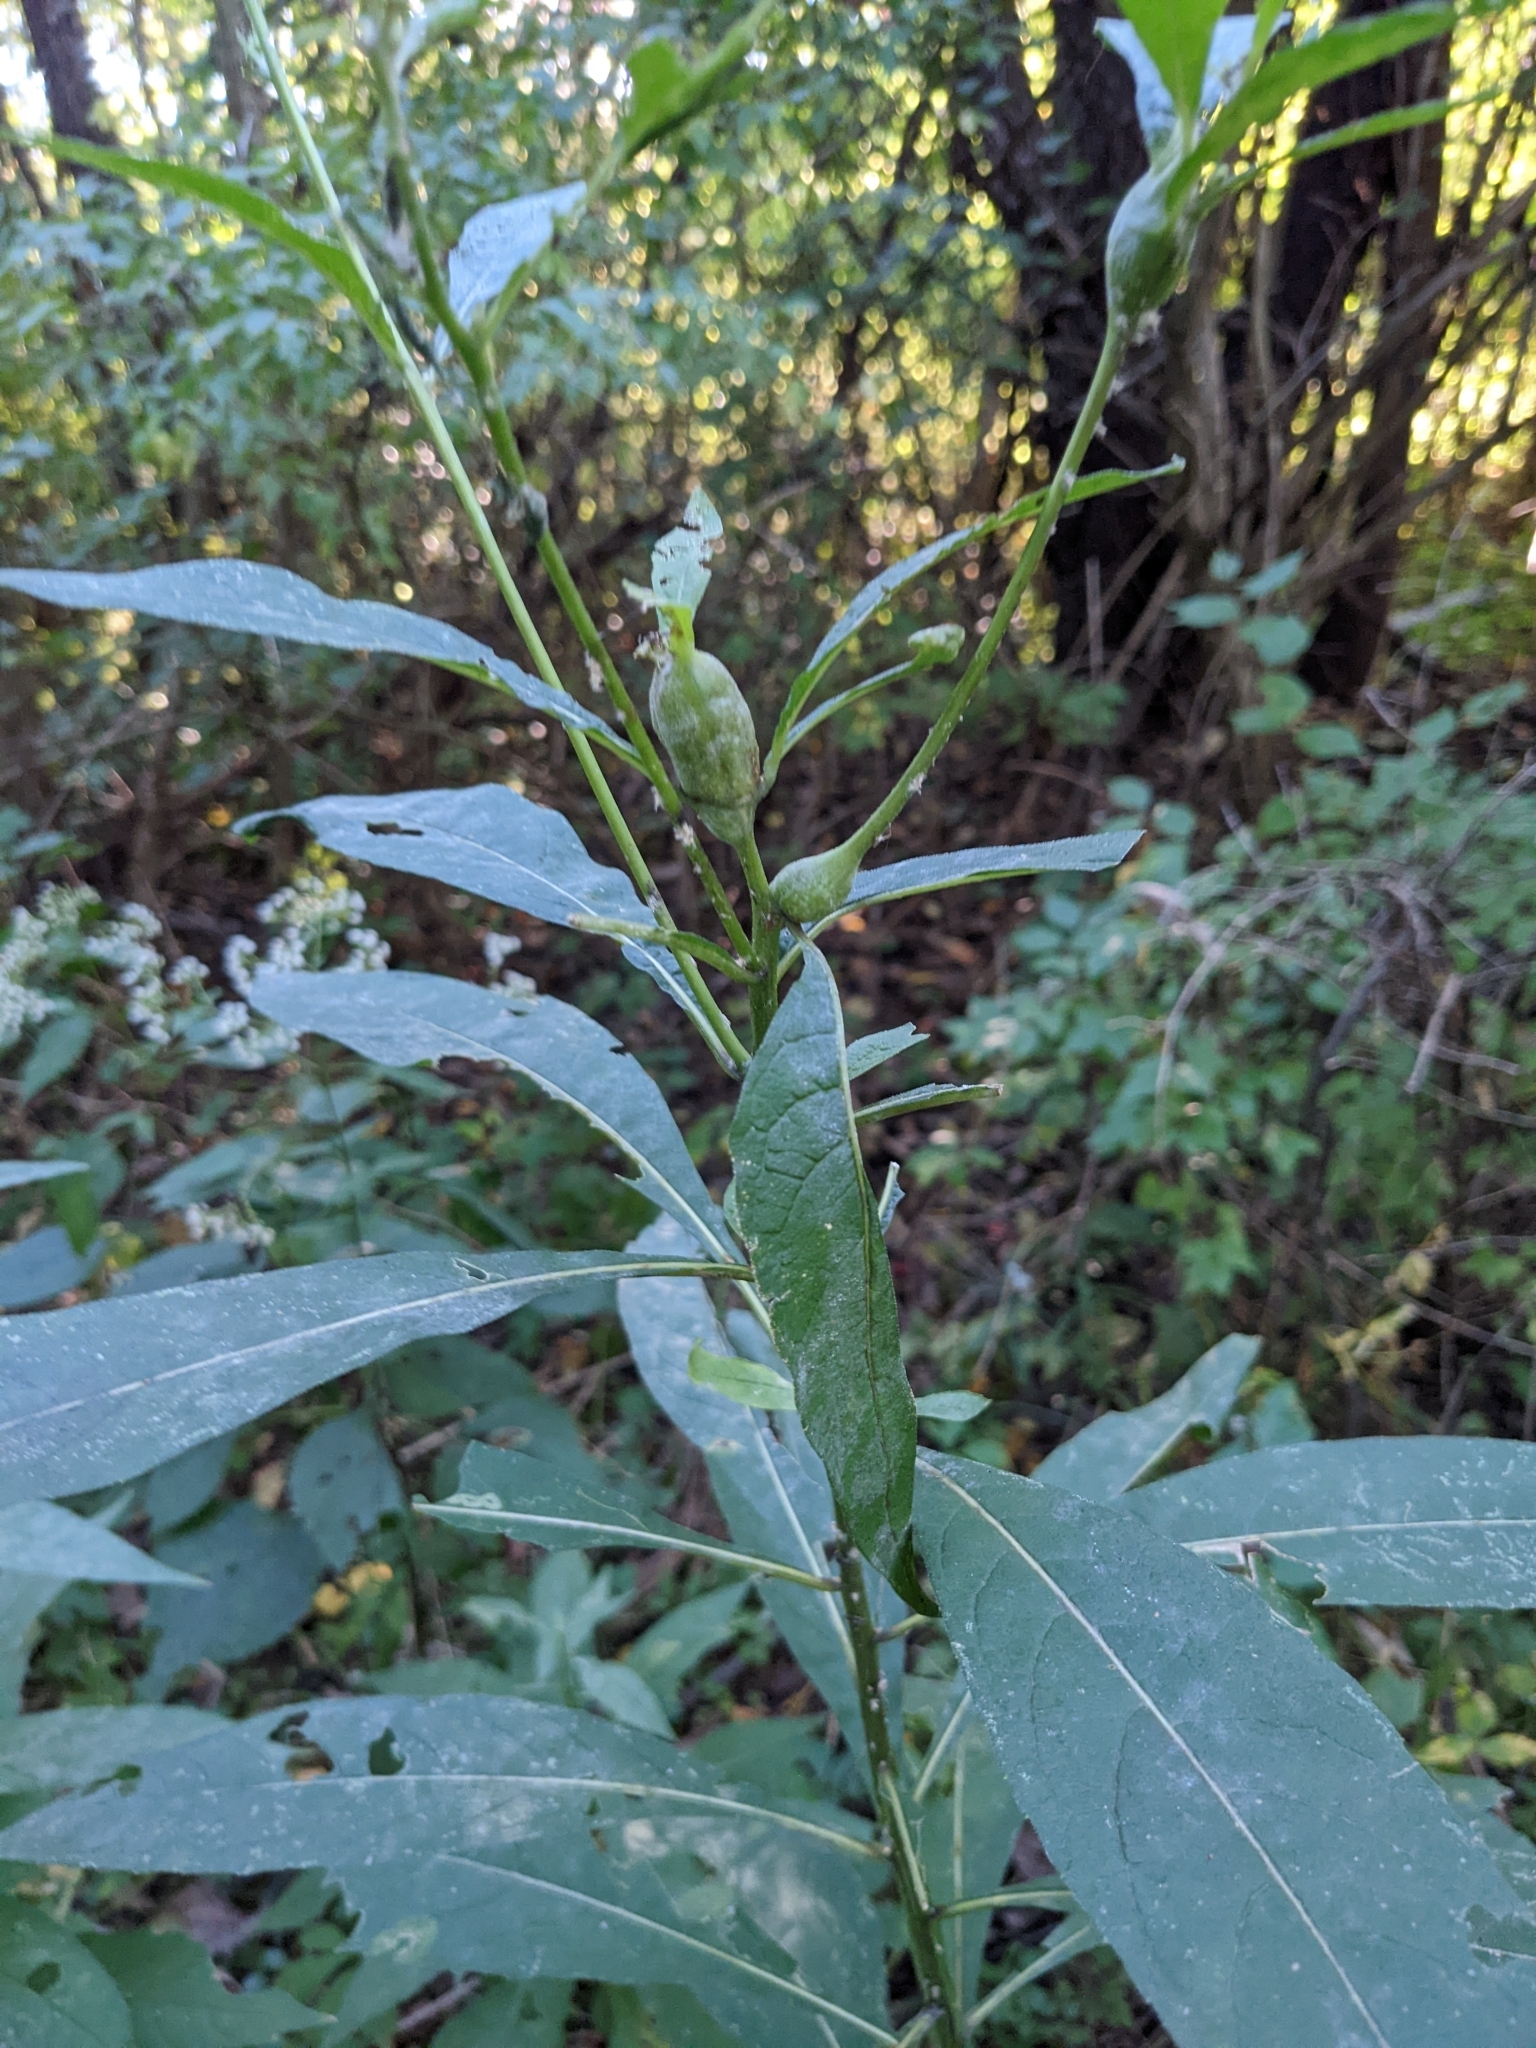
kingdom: Animalia
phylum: Arthropoda
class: Insecta
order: Diptera
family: Cecidomyiidae
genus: Neolasioptera
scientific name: Neolasioptera verbesinae
